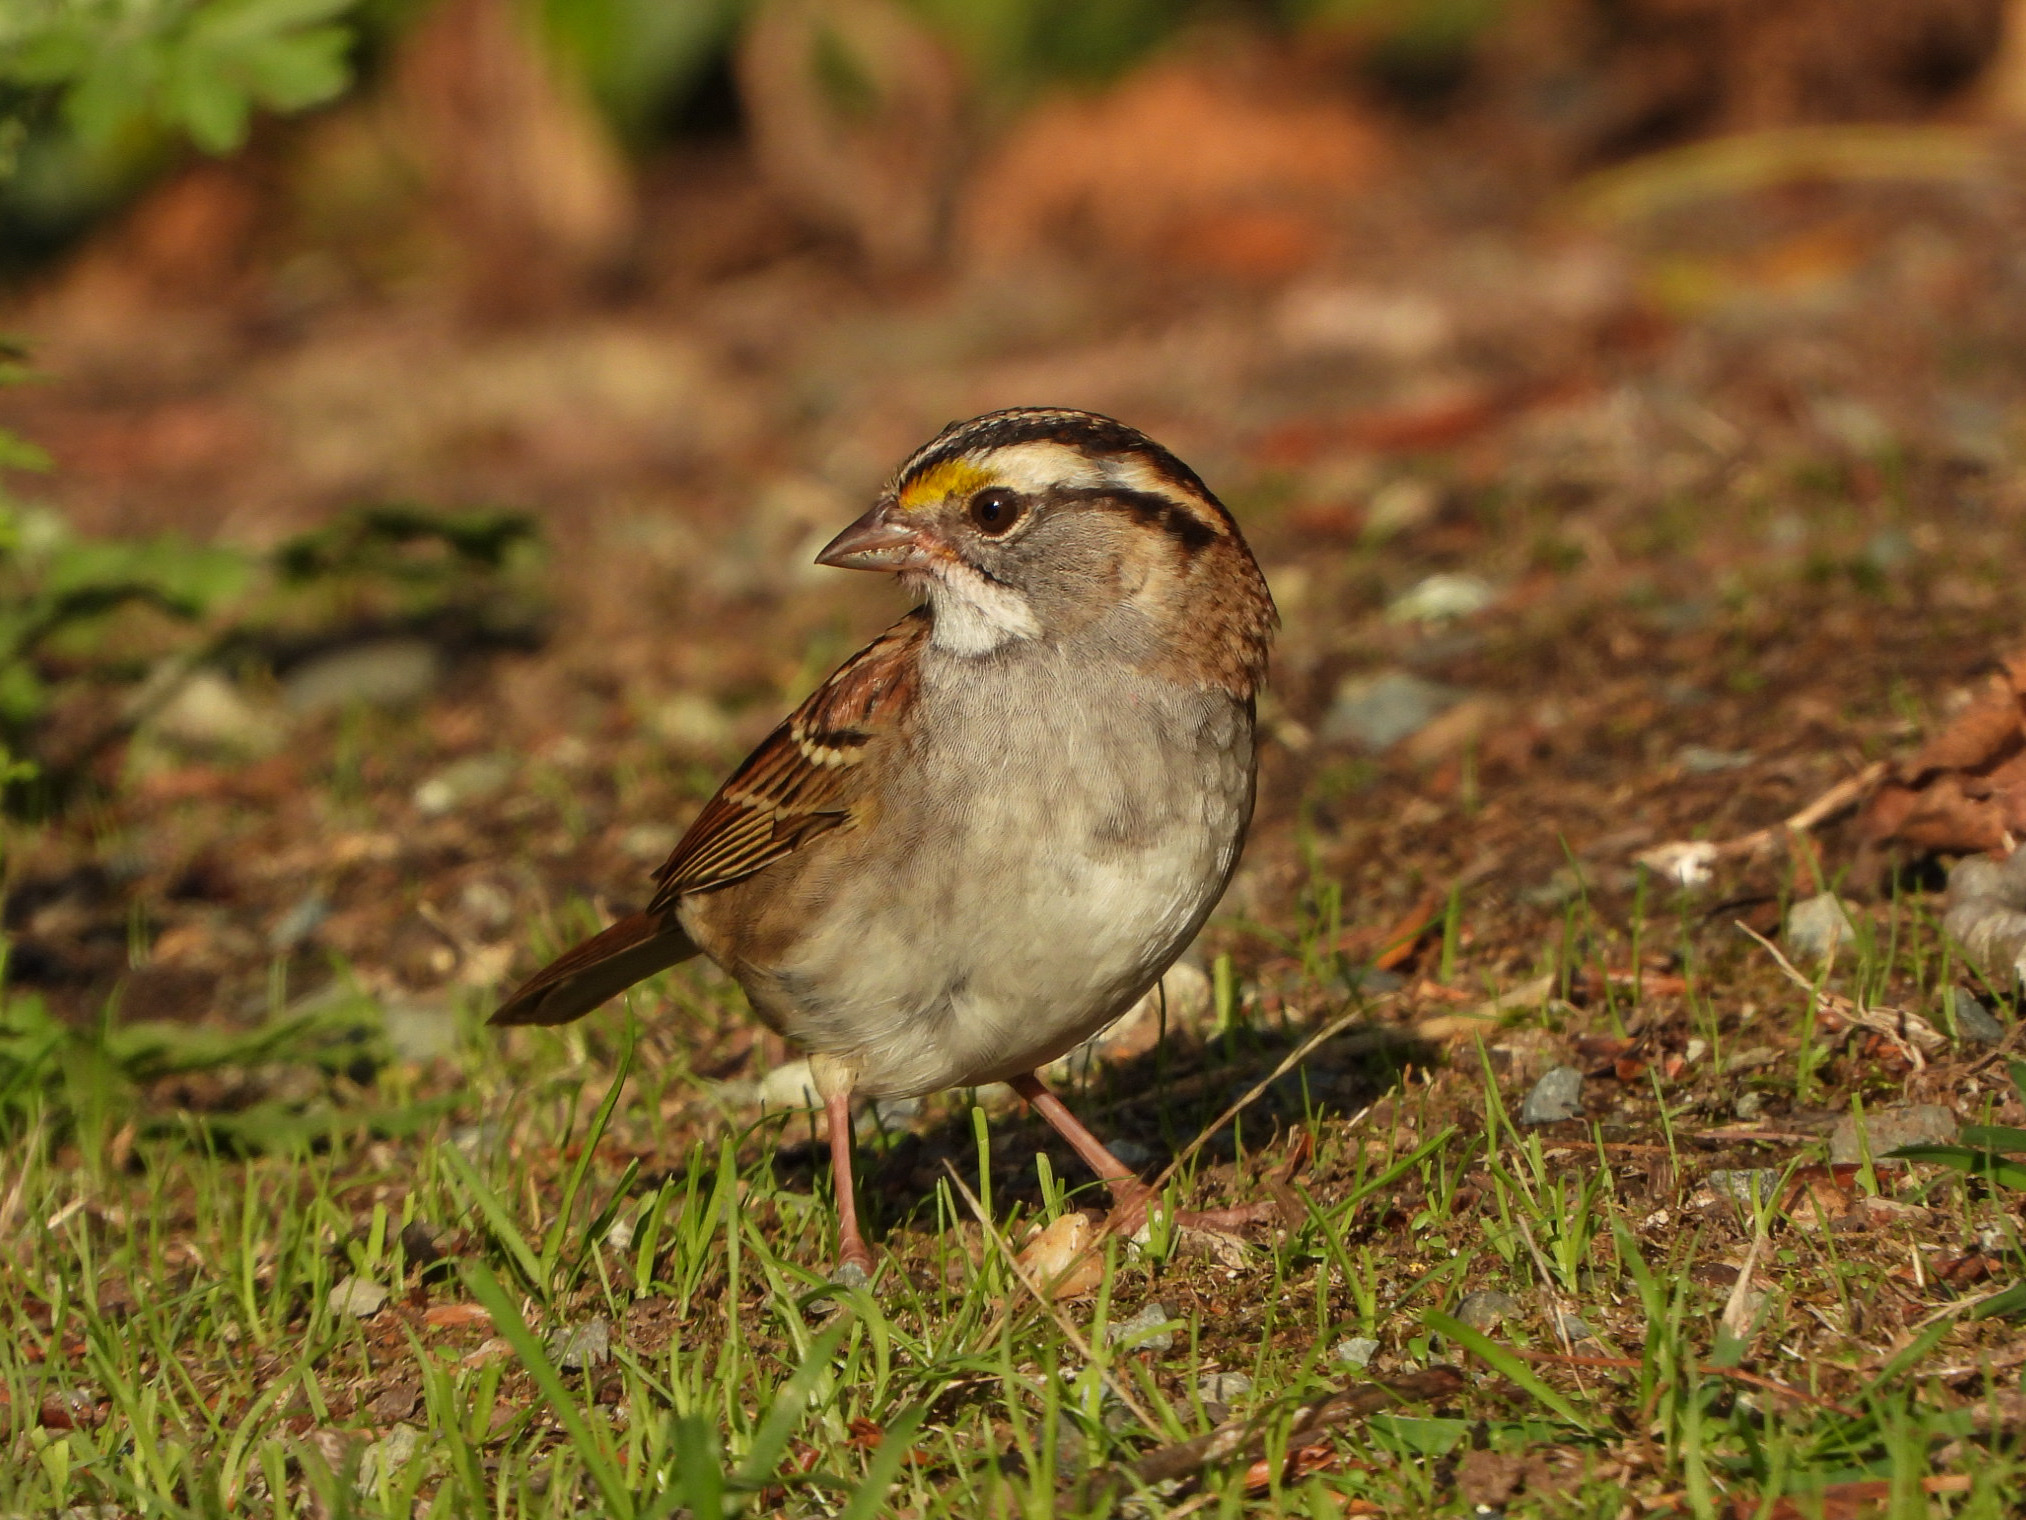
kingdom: Animalia
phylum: Chordata
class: Aves
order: Passeriformes
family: Passerellidae
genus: Zonotrichia
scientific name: Zonotrichia albicollis
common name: White-throated sparrow
